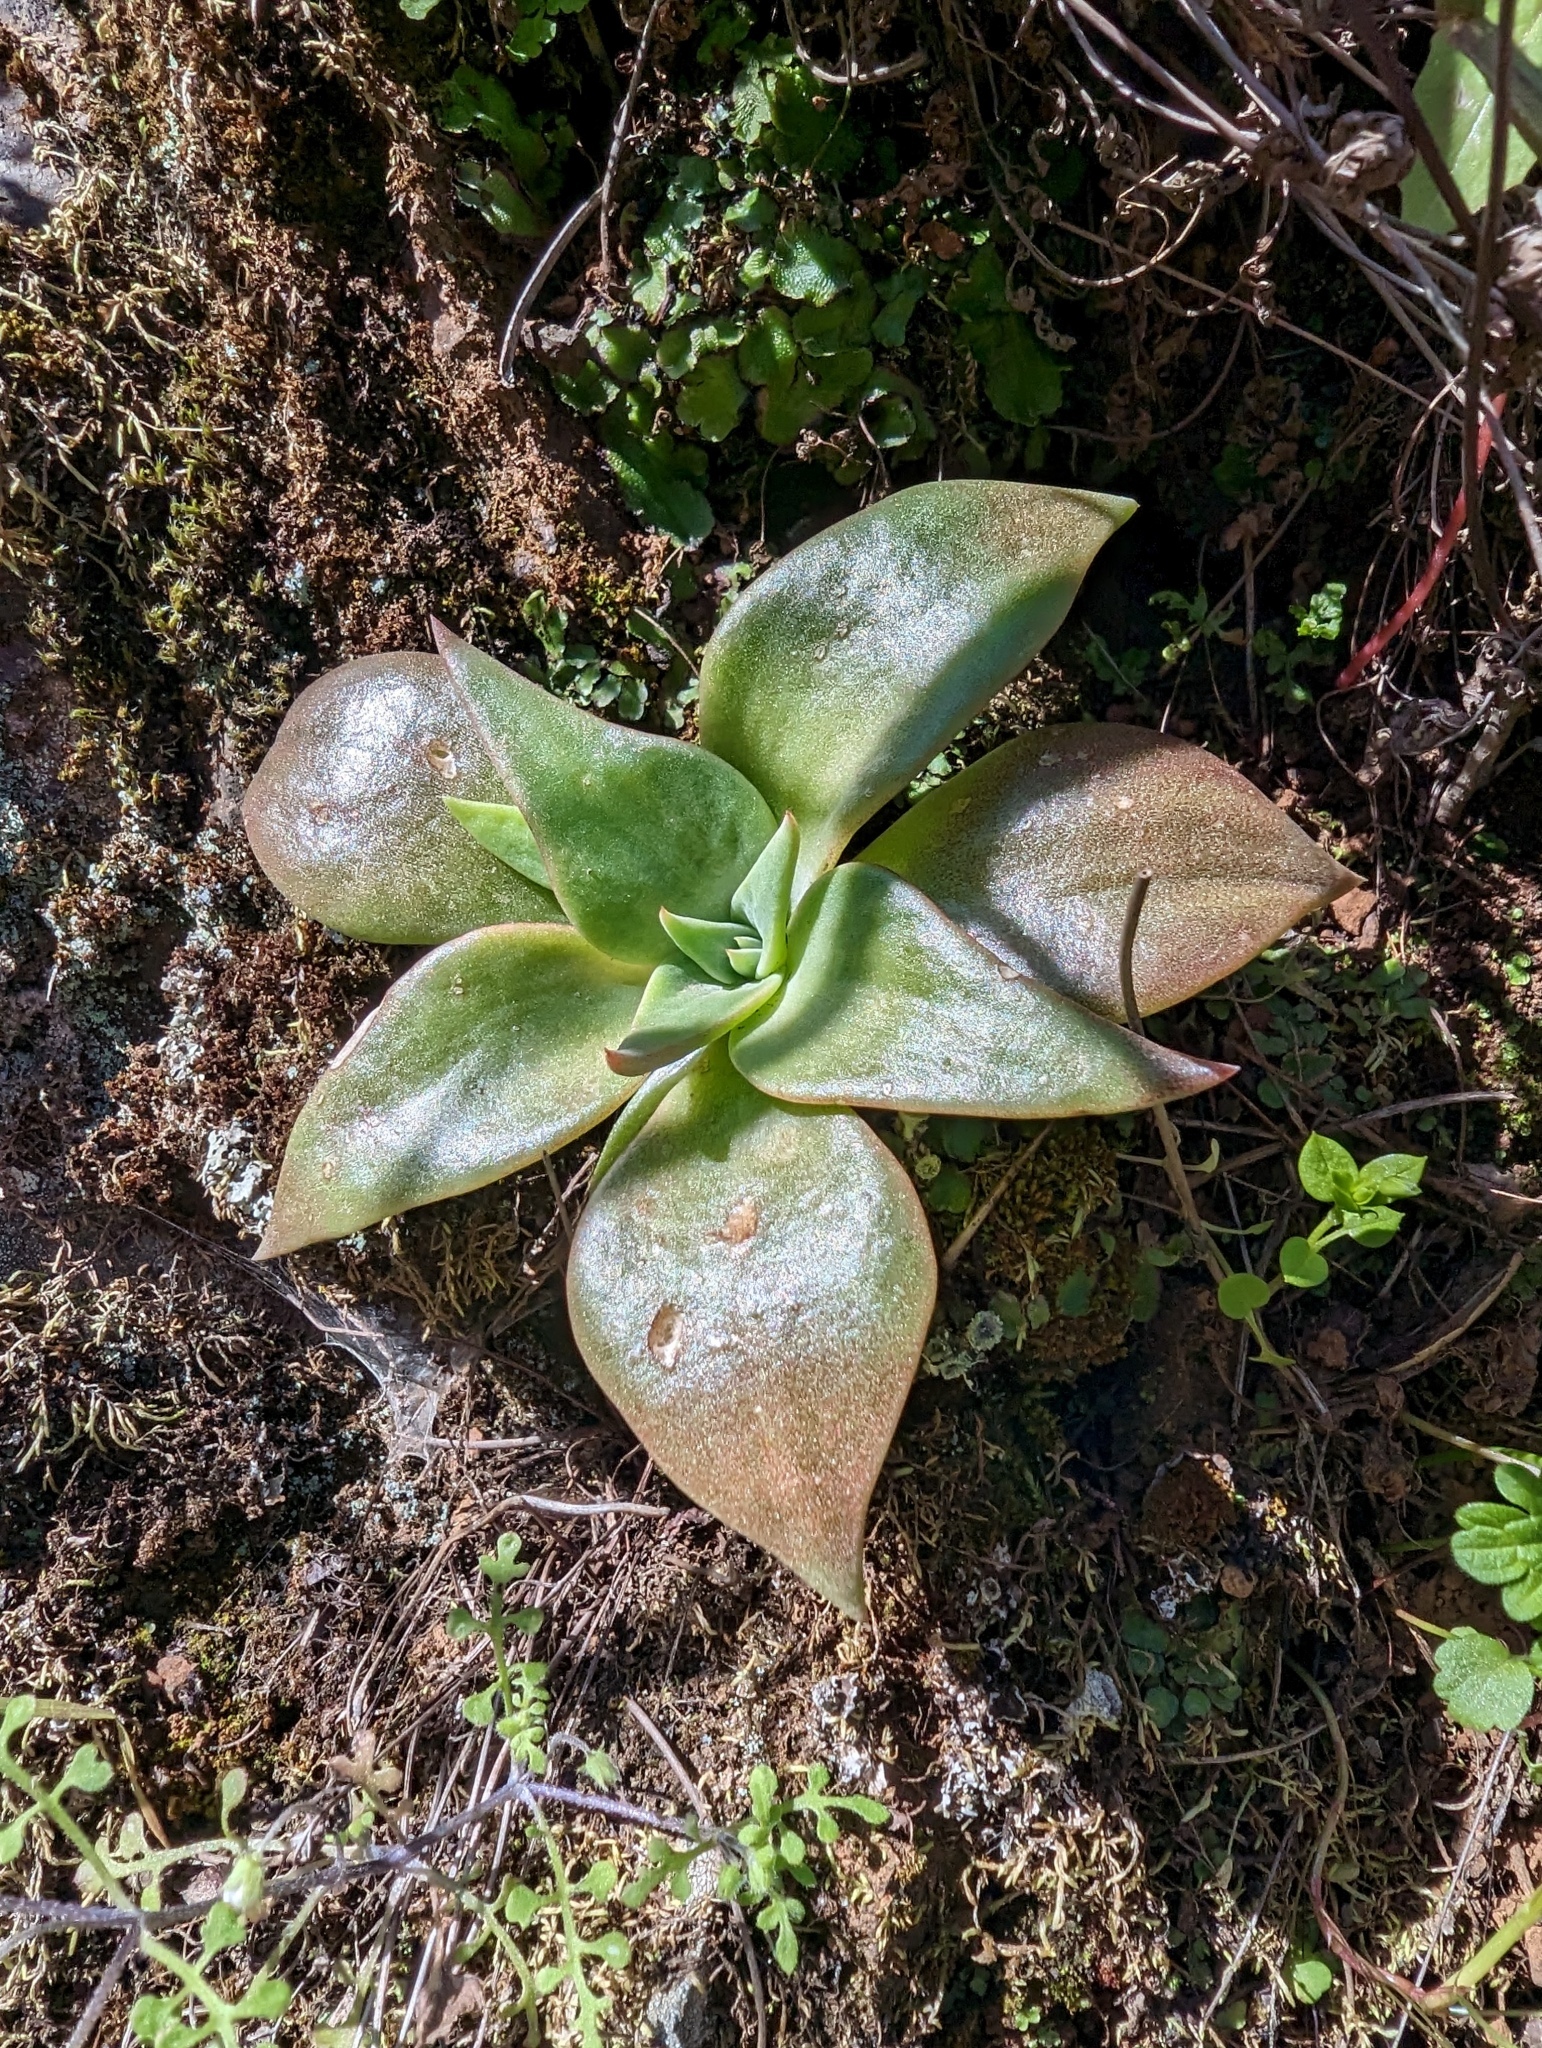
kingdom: Plantae
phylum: Tracheophyta
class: Magnoliopsida
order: Saxifragales
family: Crassulaceae
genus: Dudleya
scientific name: Dudleya cymosa
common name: Canyon dudleya
